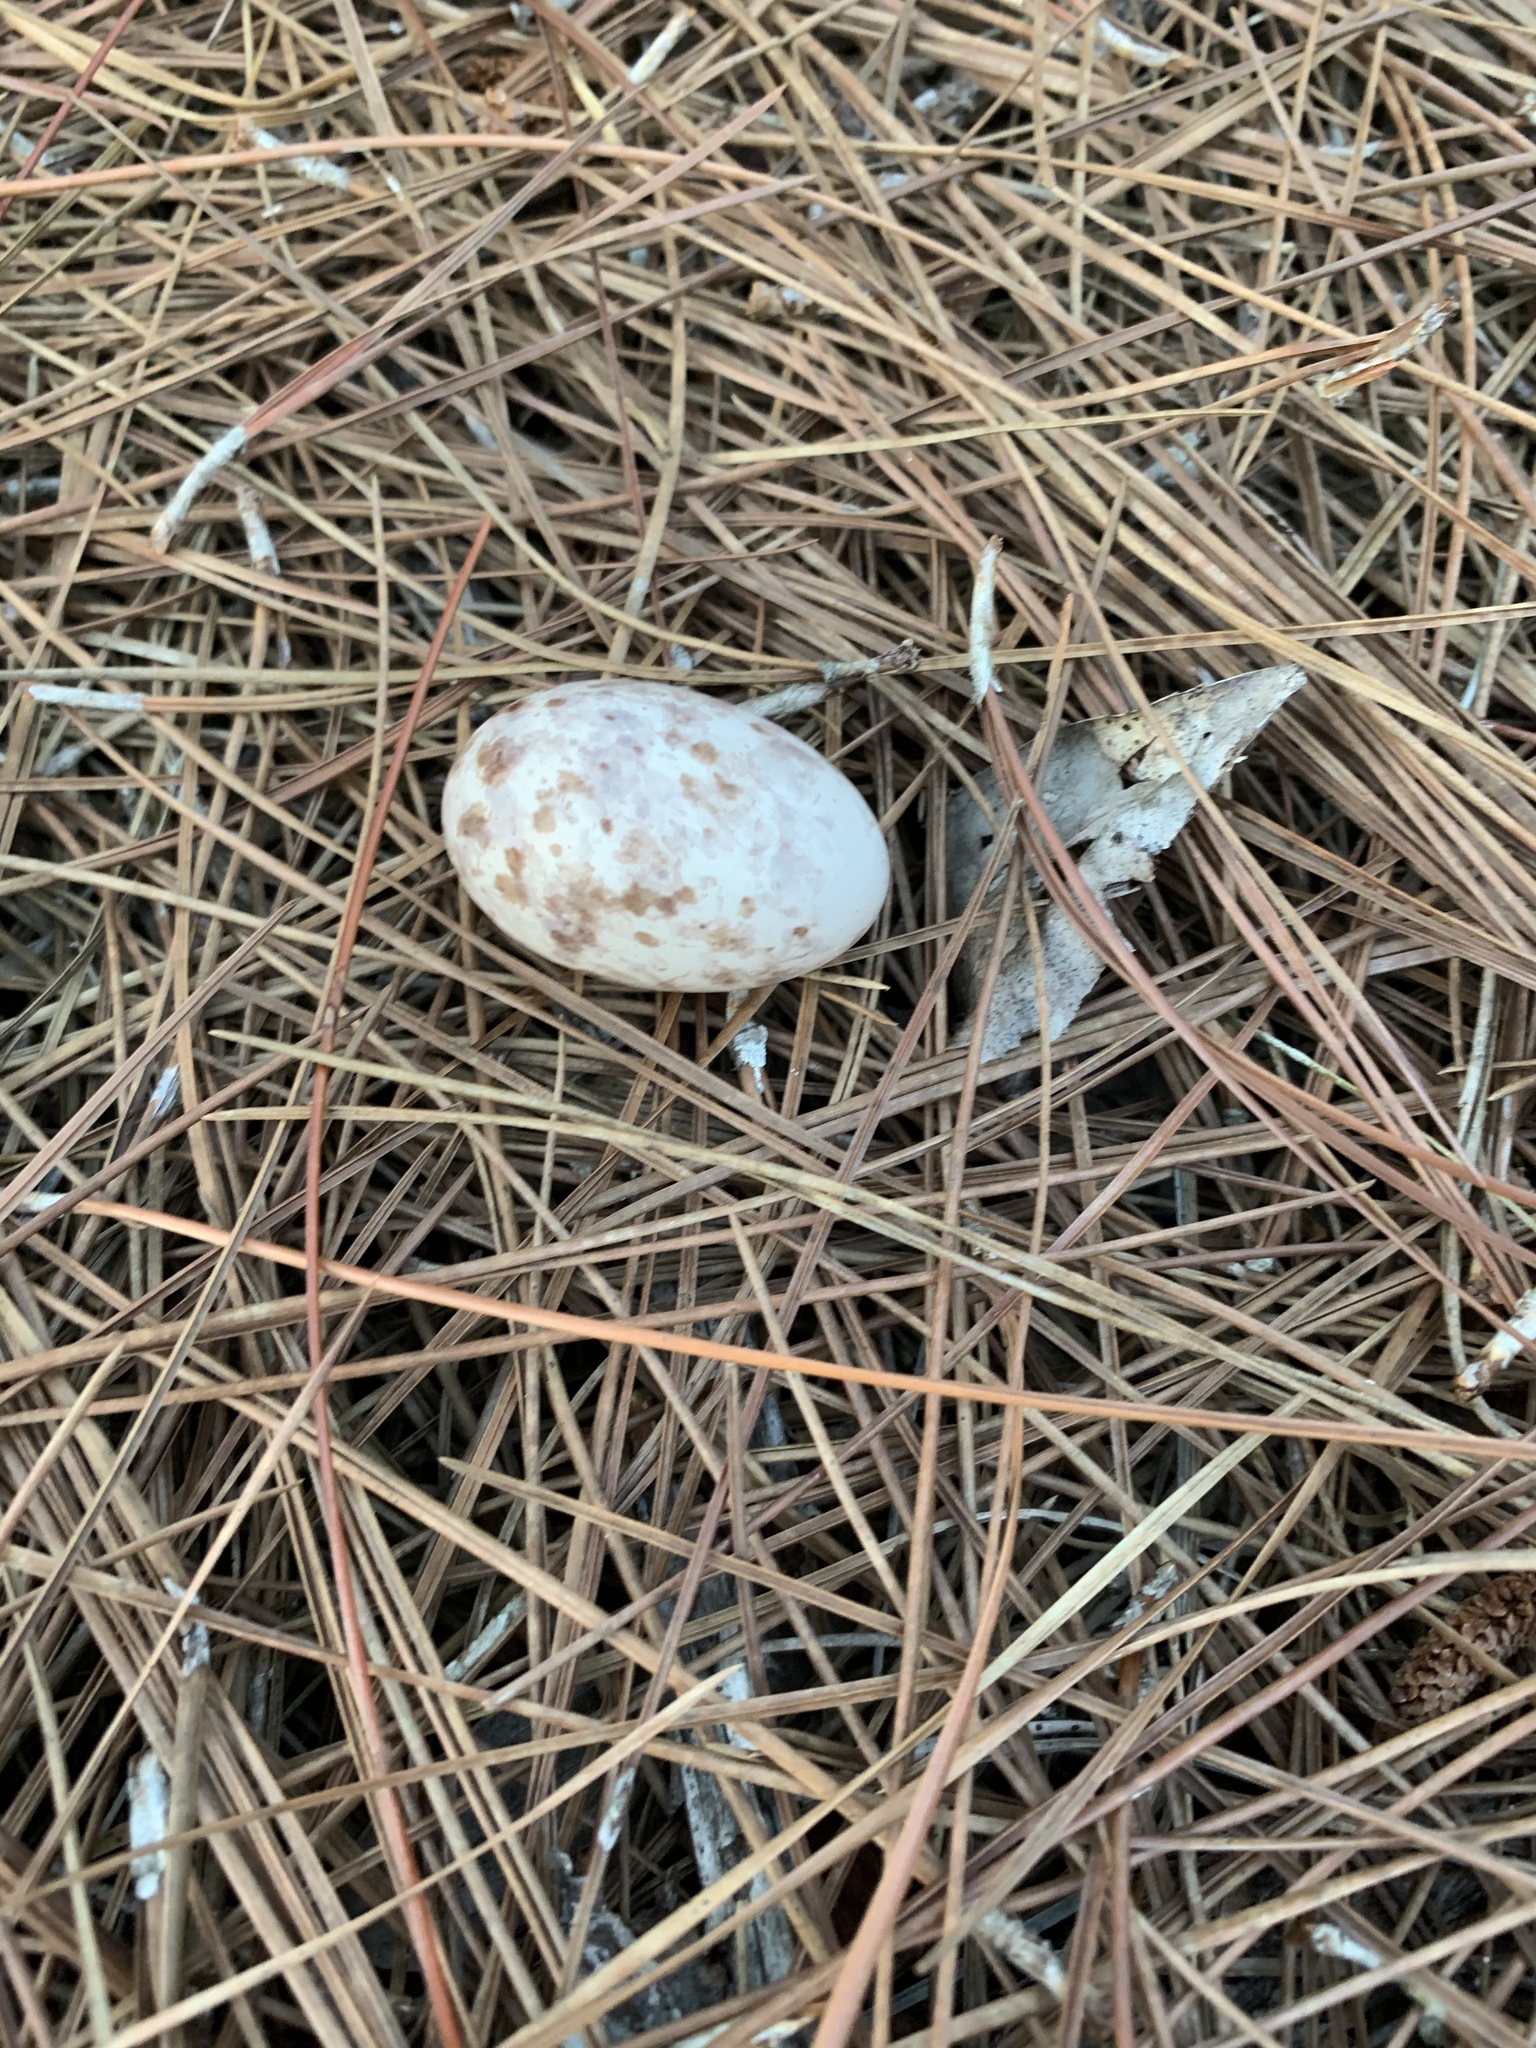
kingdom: Animalia
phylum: Chordata
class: Aves
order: Caprimulgiformes
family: Caprimulgidae
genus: Antrostomus
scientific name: Antrostomus carolinensis
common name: Chuck-will's-widow
